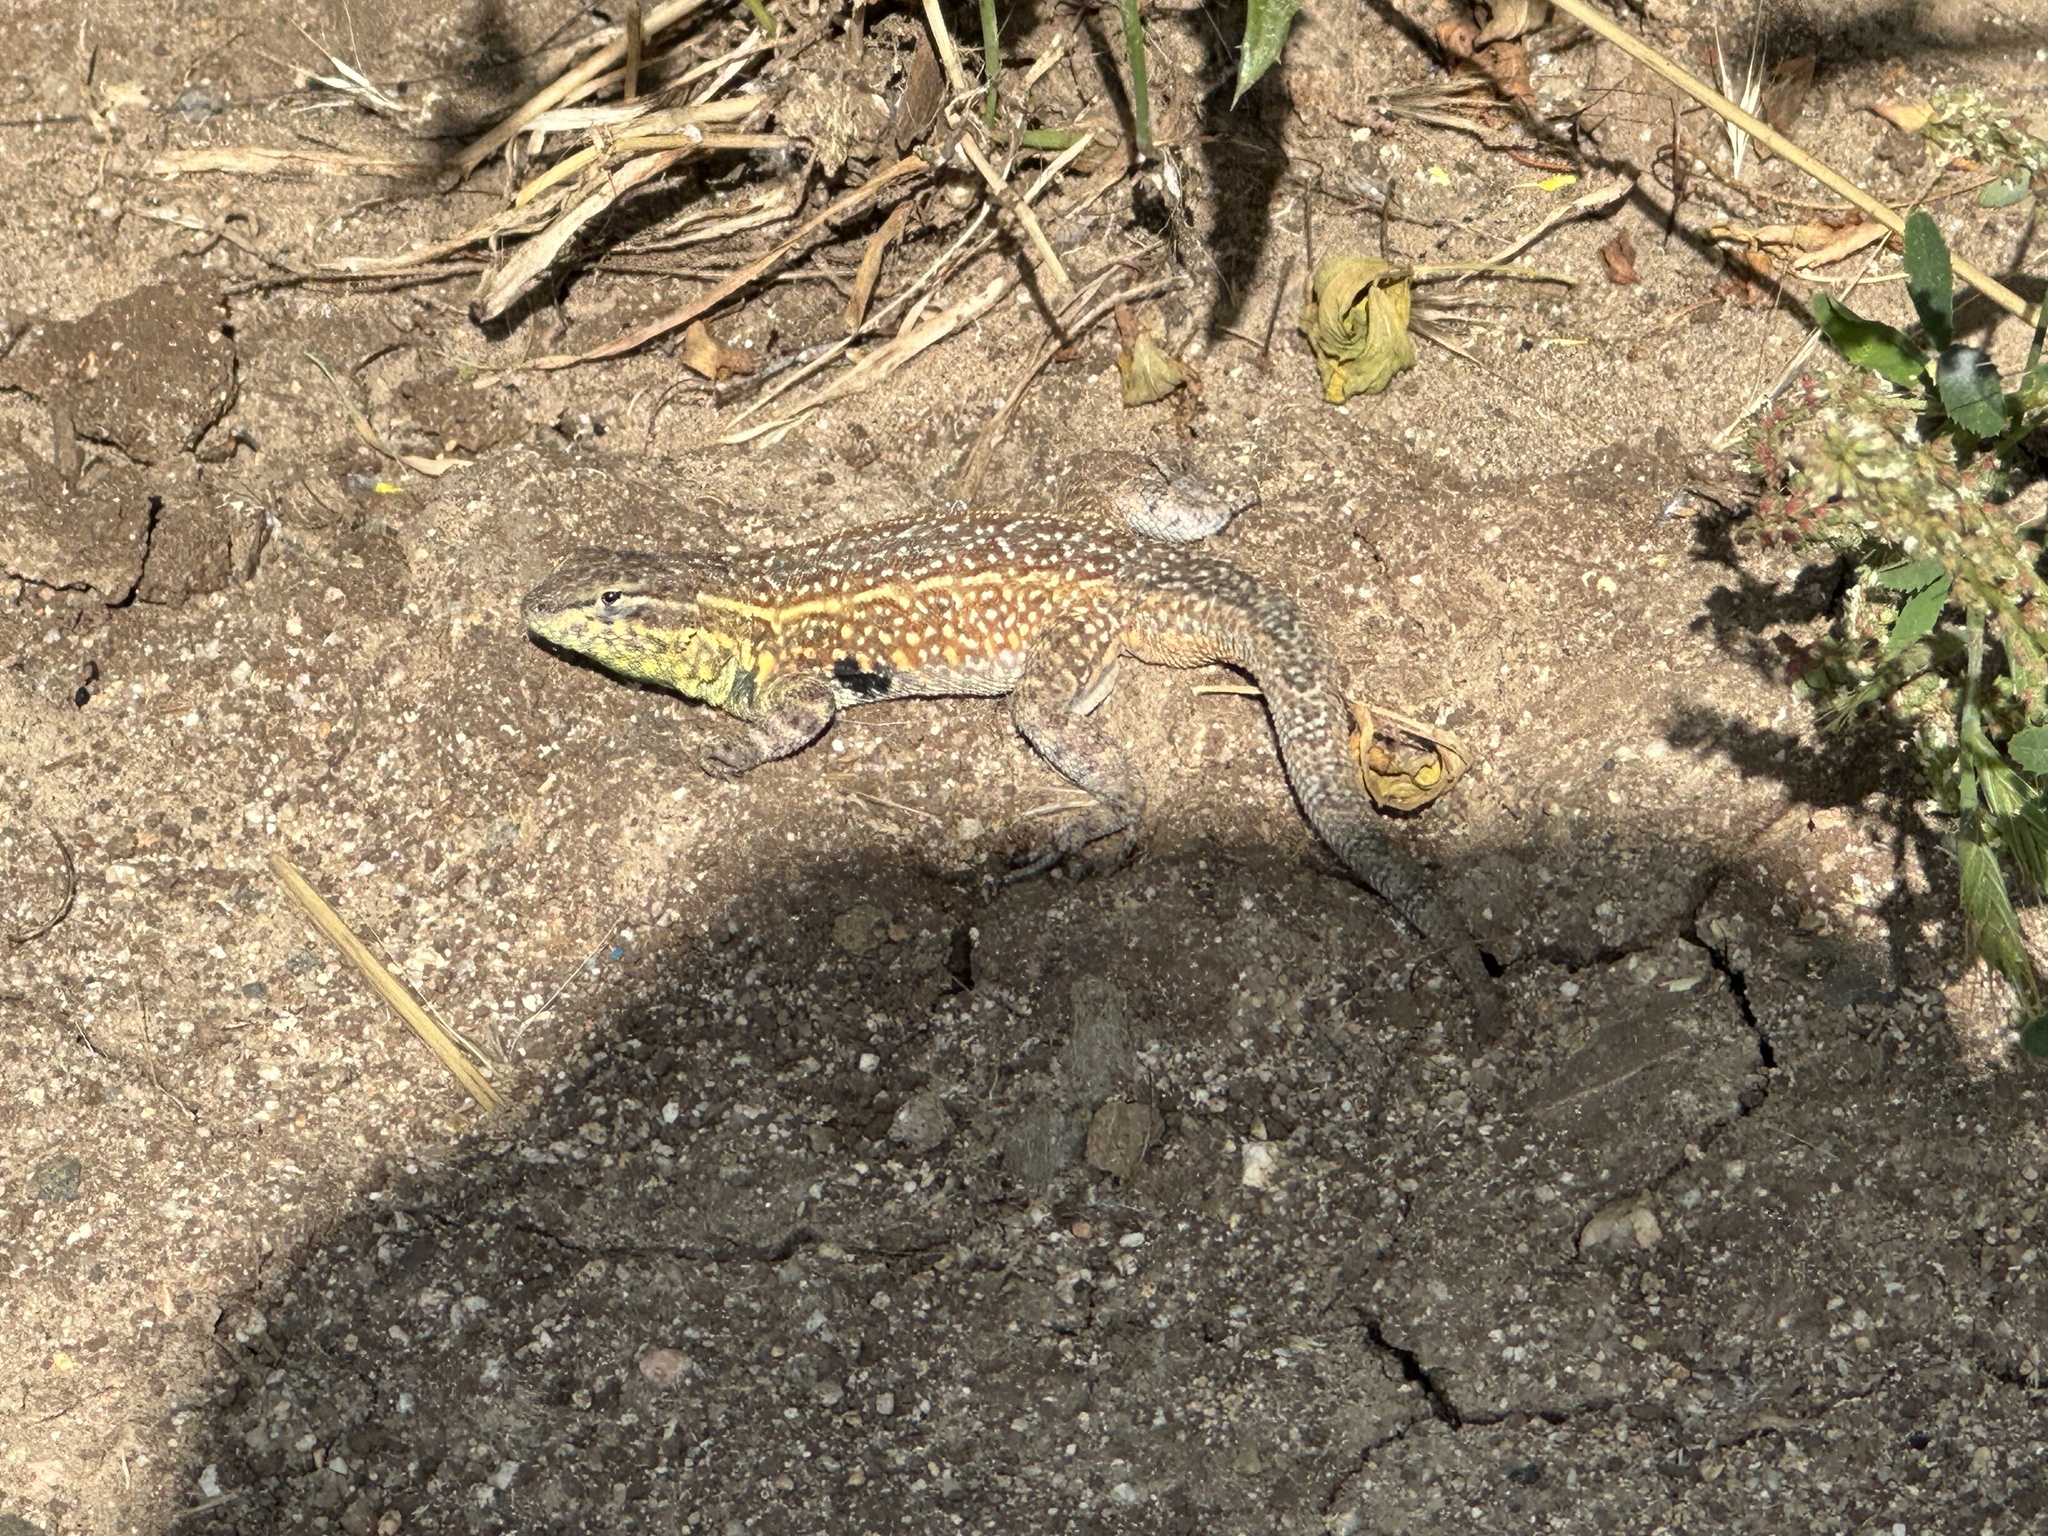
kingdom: Animalia
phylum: Chordata
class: Squamata
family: Phrynosomatidae
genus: Uta
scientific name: Uta stansburiana
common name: Side-blotched lizard
